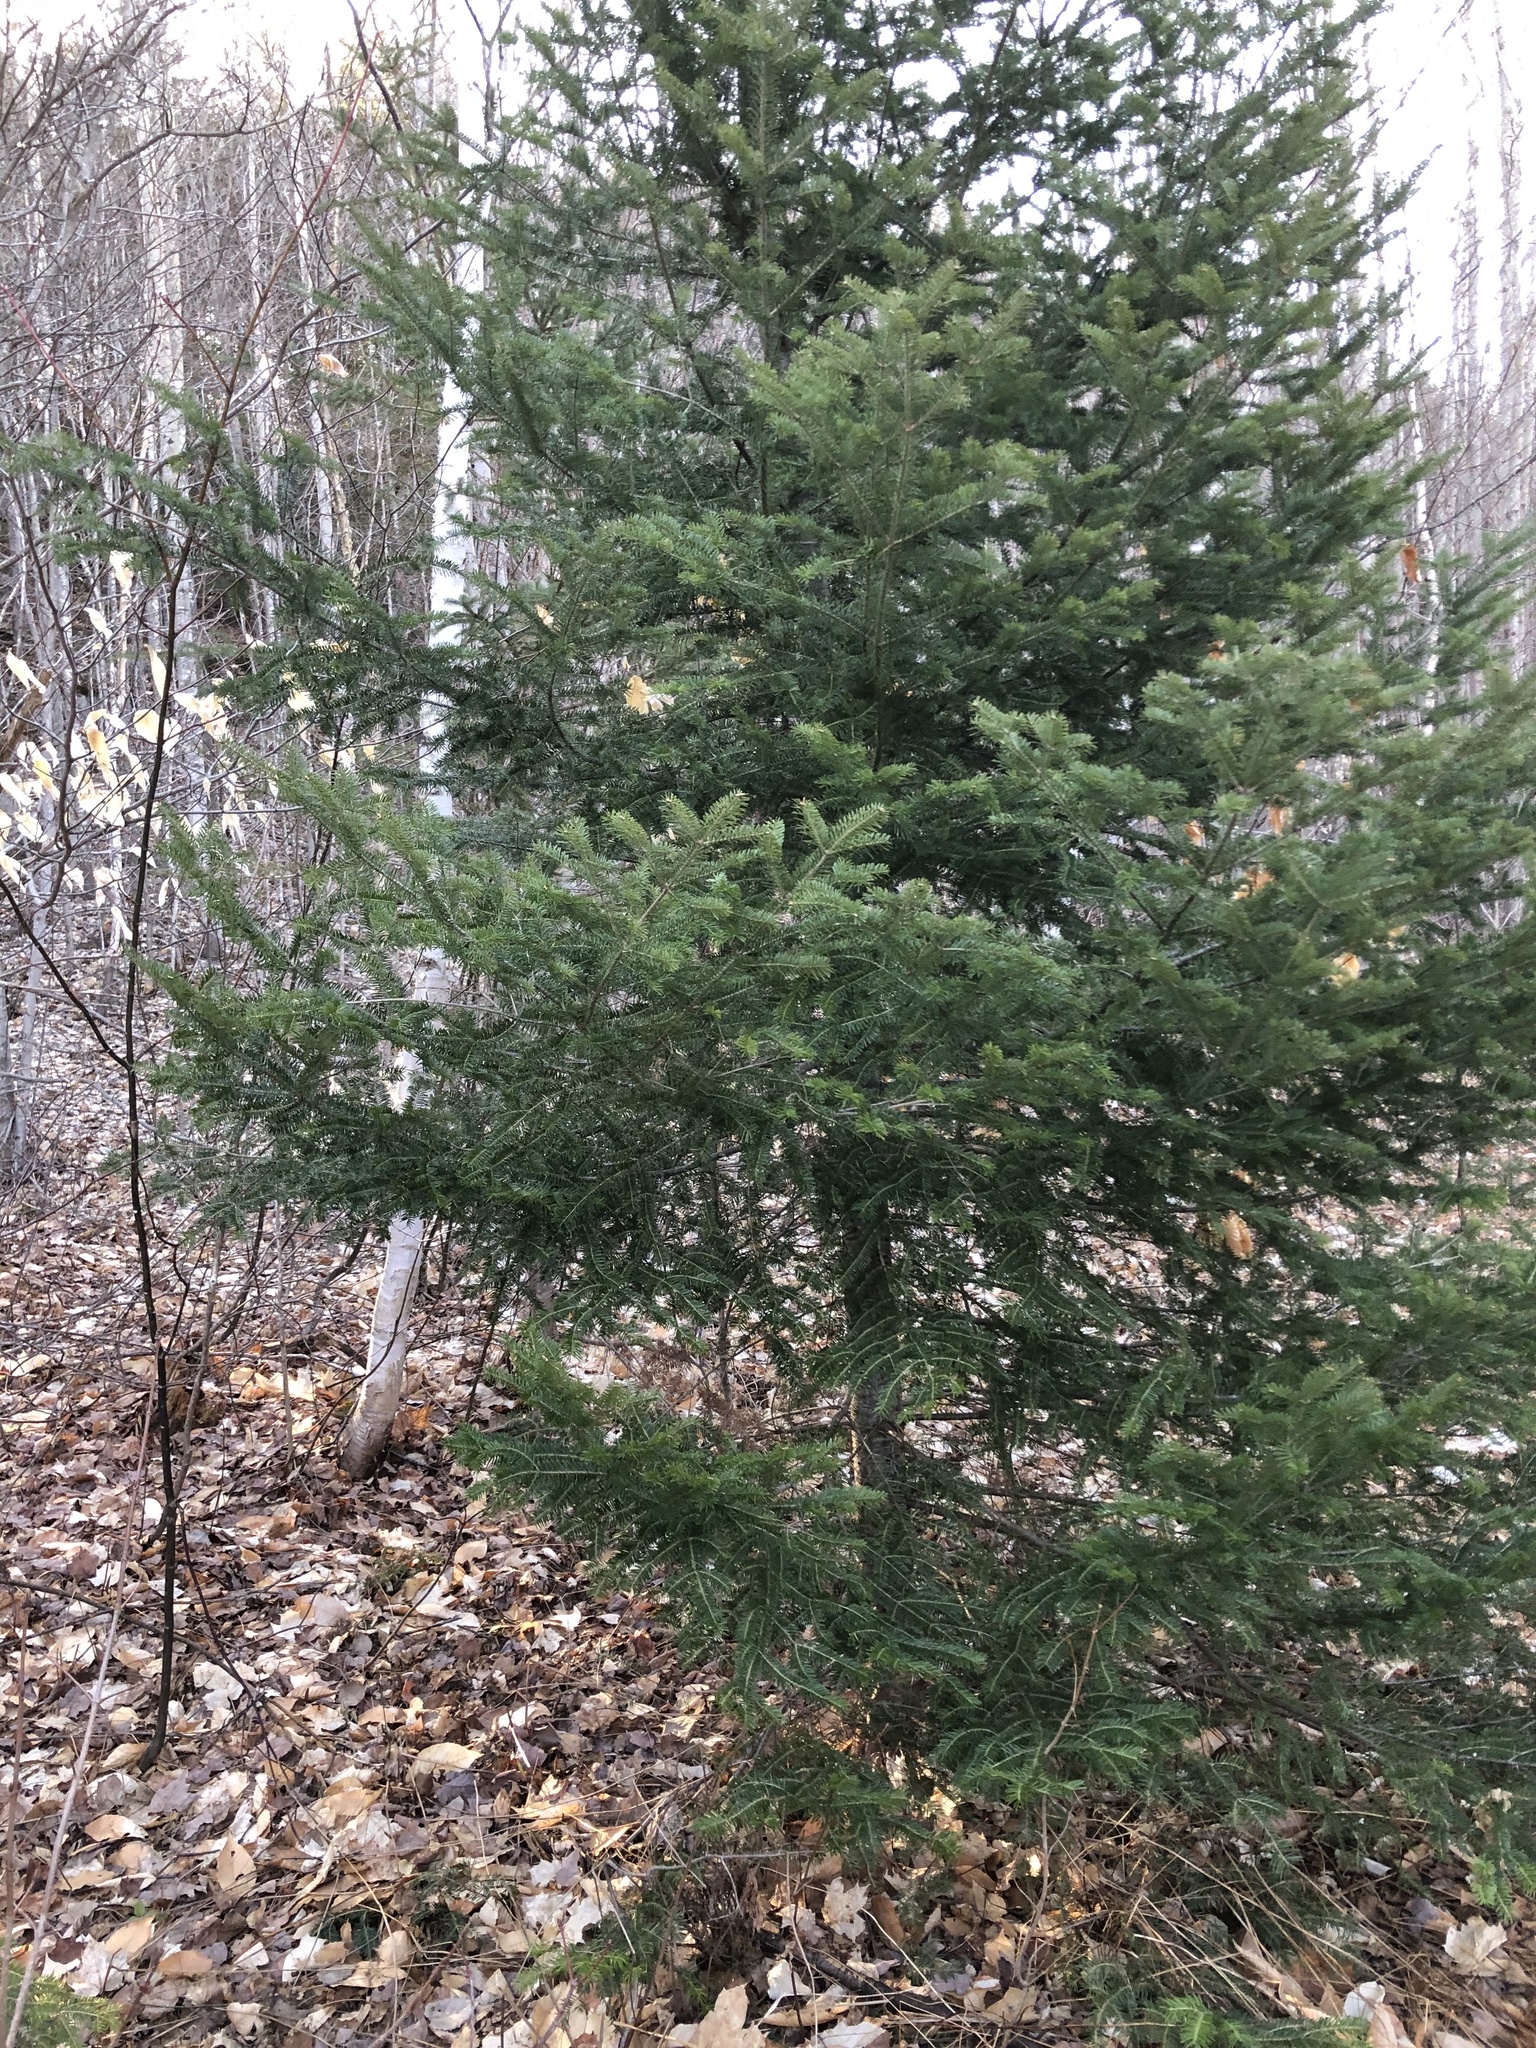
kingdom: Plantae
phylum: Tracheophyta
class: Pinopsida
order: Pinales
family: Pinaceae
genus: Abies
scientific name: Abies balsamea
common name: Balsam fir
